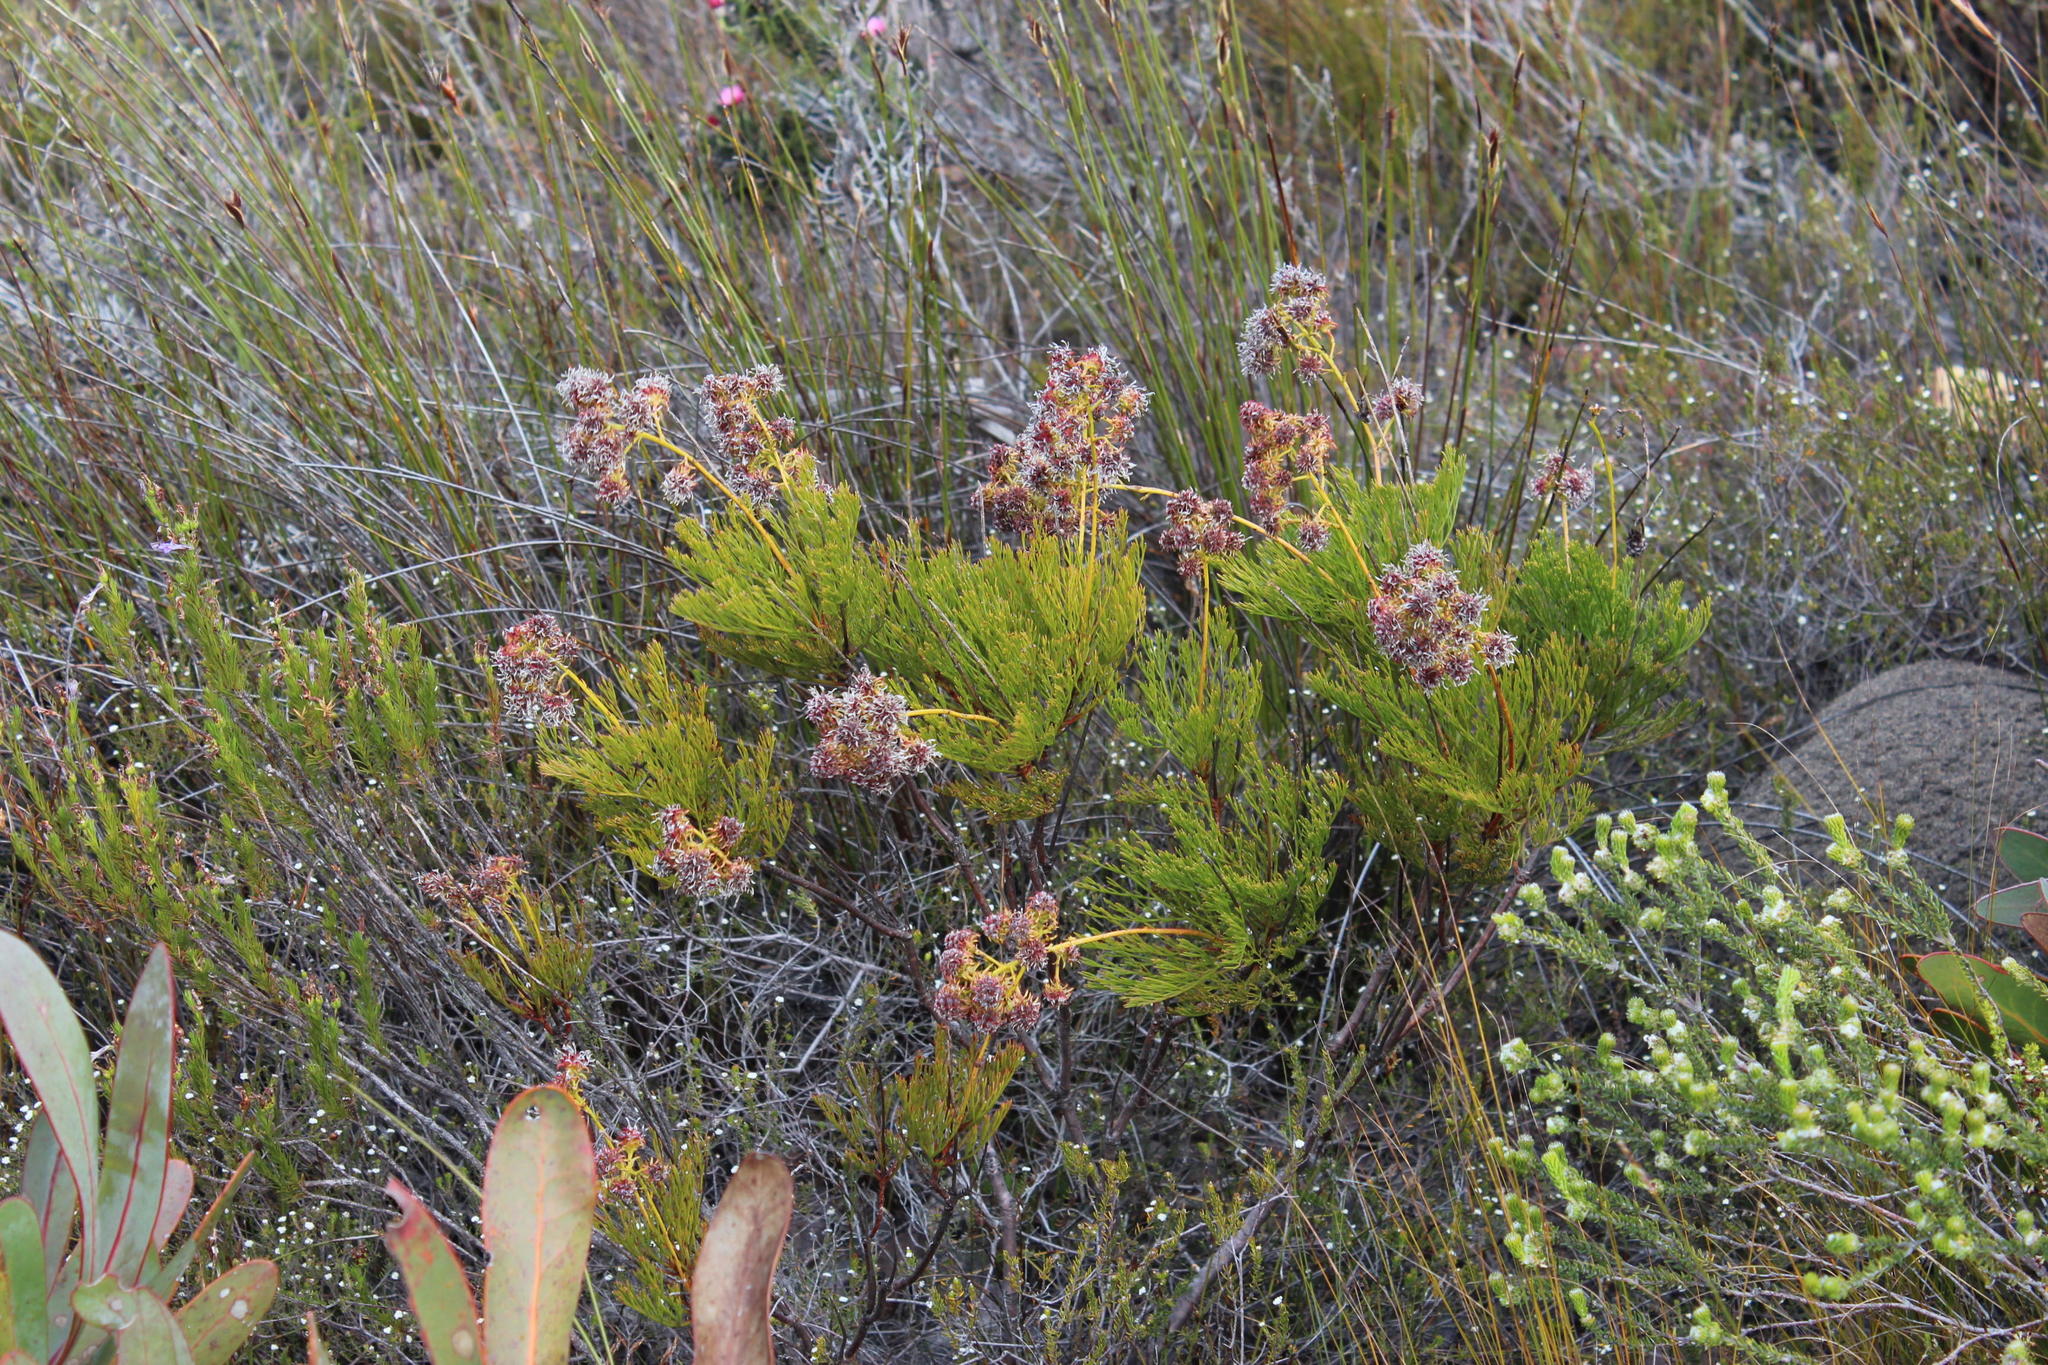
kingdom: Plantae
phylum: Tracheophyta
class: Magnoliopsida
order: Proteales
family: Proteaceae
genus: Serruria
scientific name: Serruria elongata
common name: Long-stalk spiderhead
